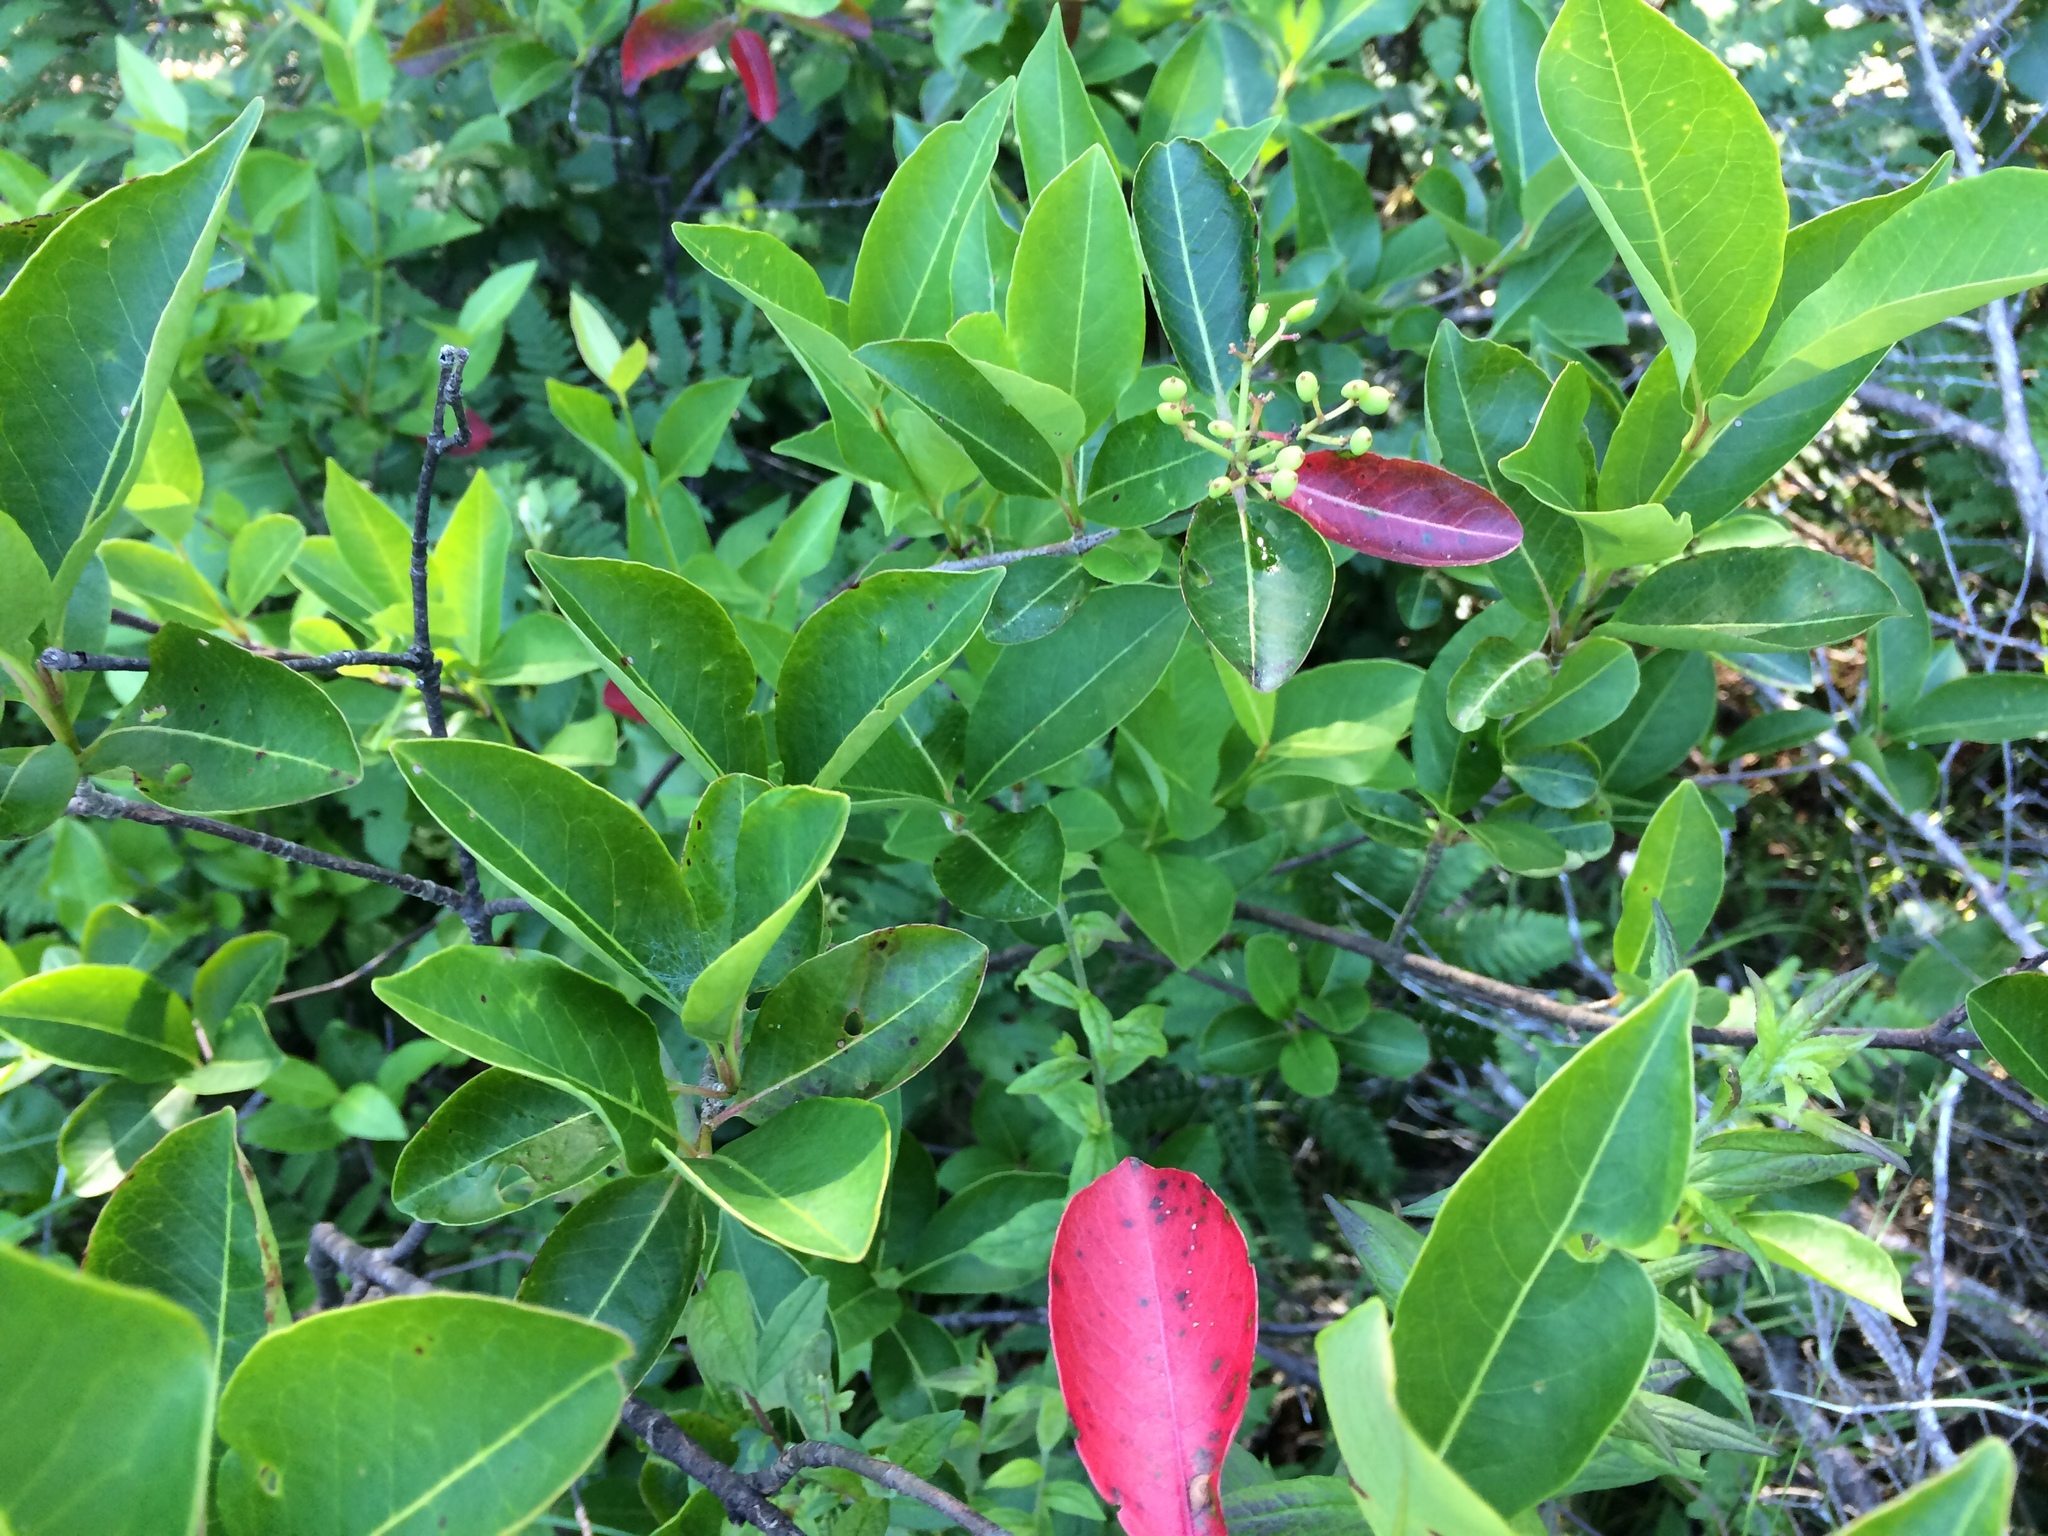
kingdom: Plantae
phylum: Tracheophyta
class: Magnoliopsida
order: Dipsacales
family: Viburnaceae
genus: Viburnum
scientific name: Viburnum cassinoides
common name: Swamp haw
